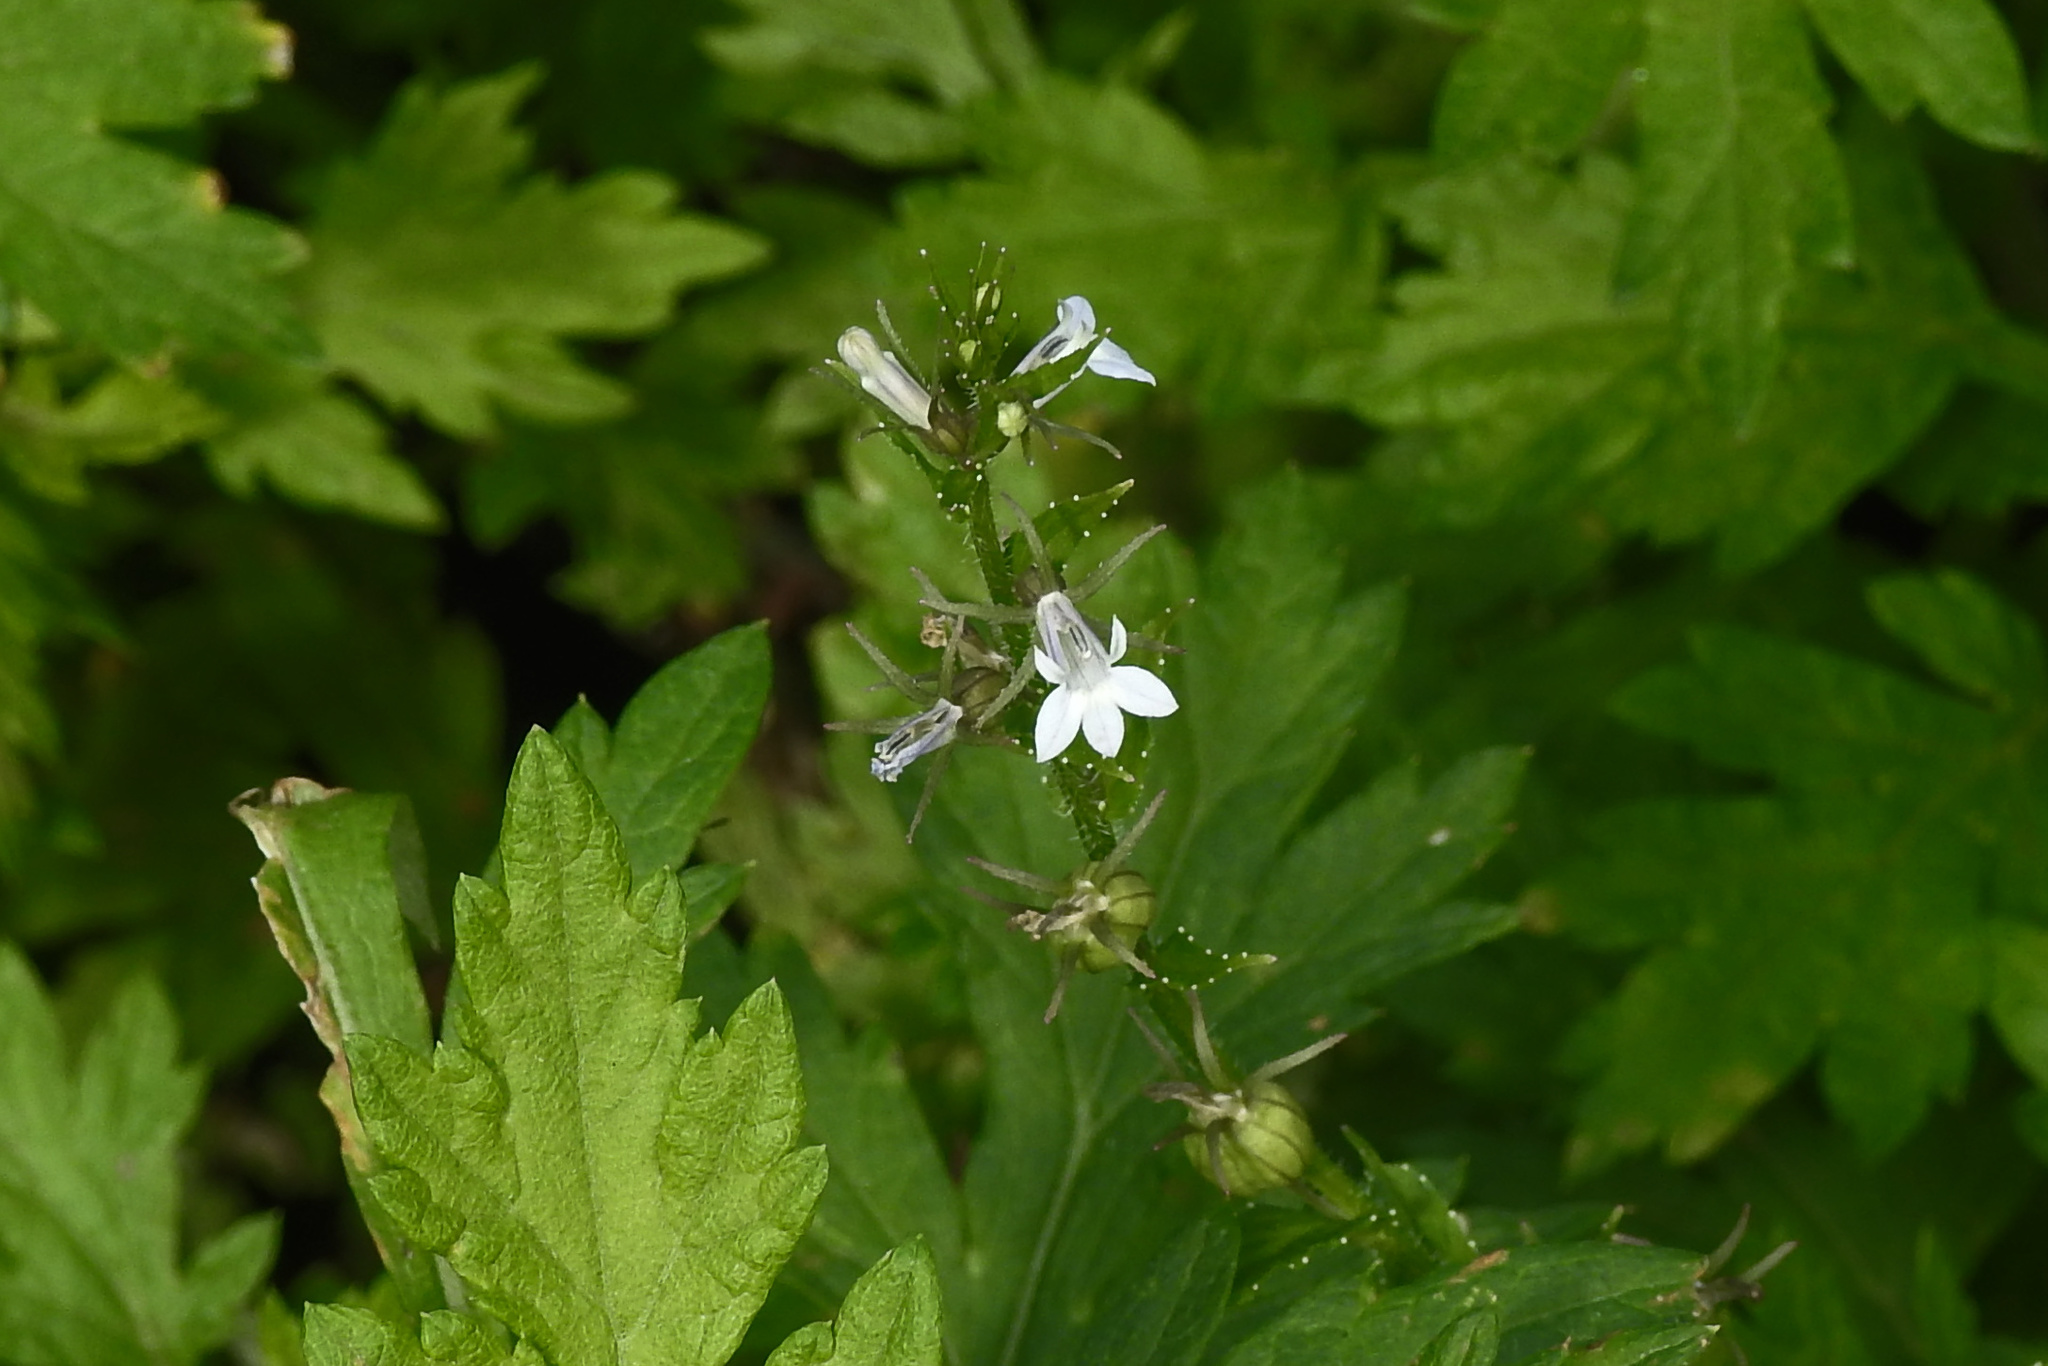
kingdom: Plantae
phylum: Tracheophyta
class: Magnoliopsida
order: Asterales
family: Campanulaceae
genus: Lobelia
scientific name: Lobelia inflata
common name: Indian tobacco
